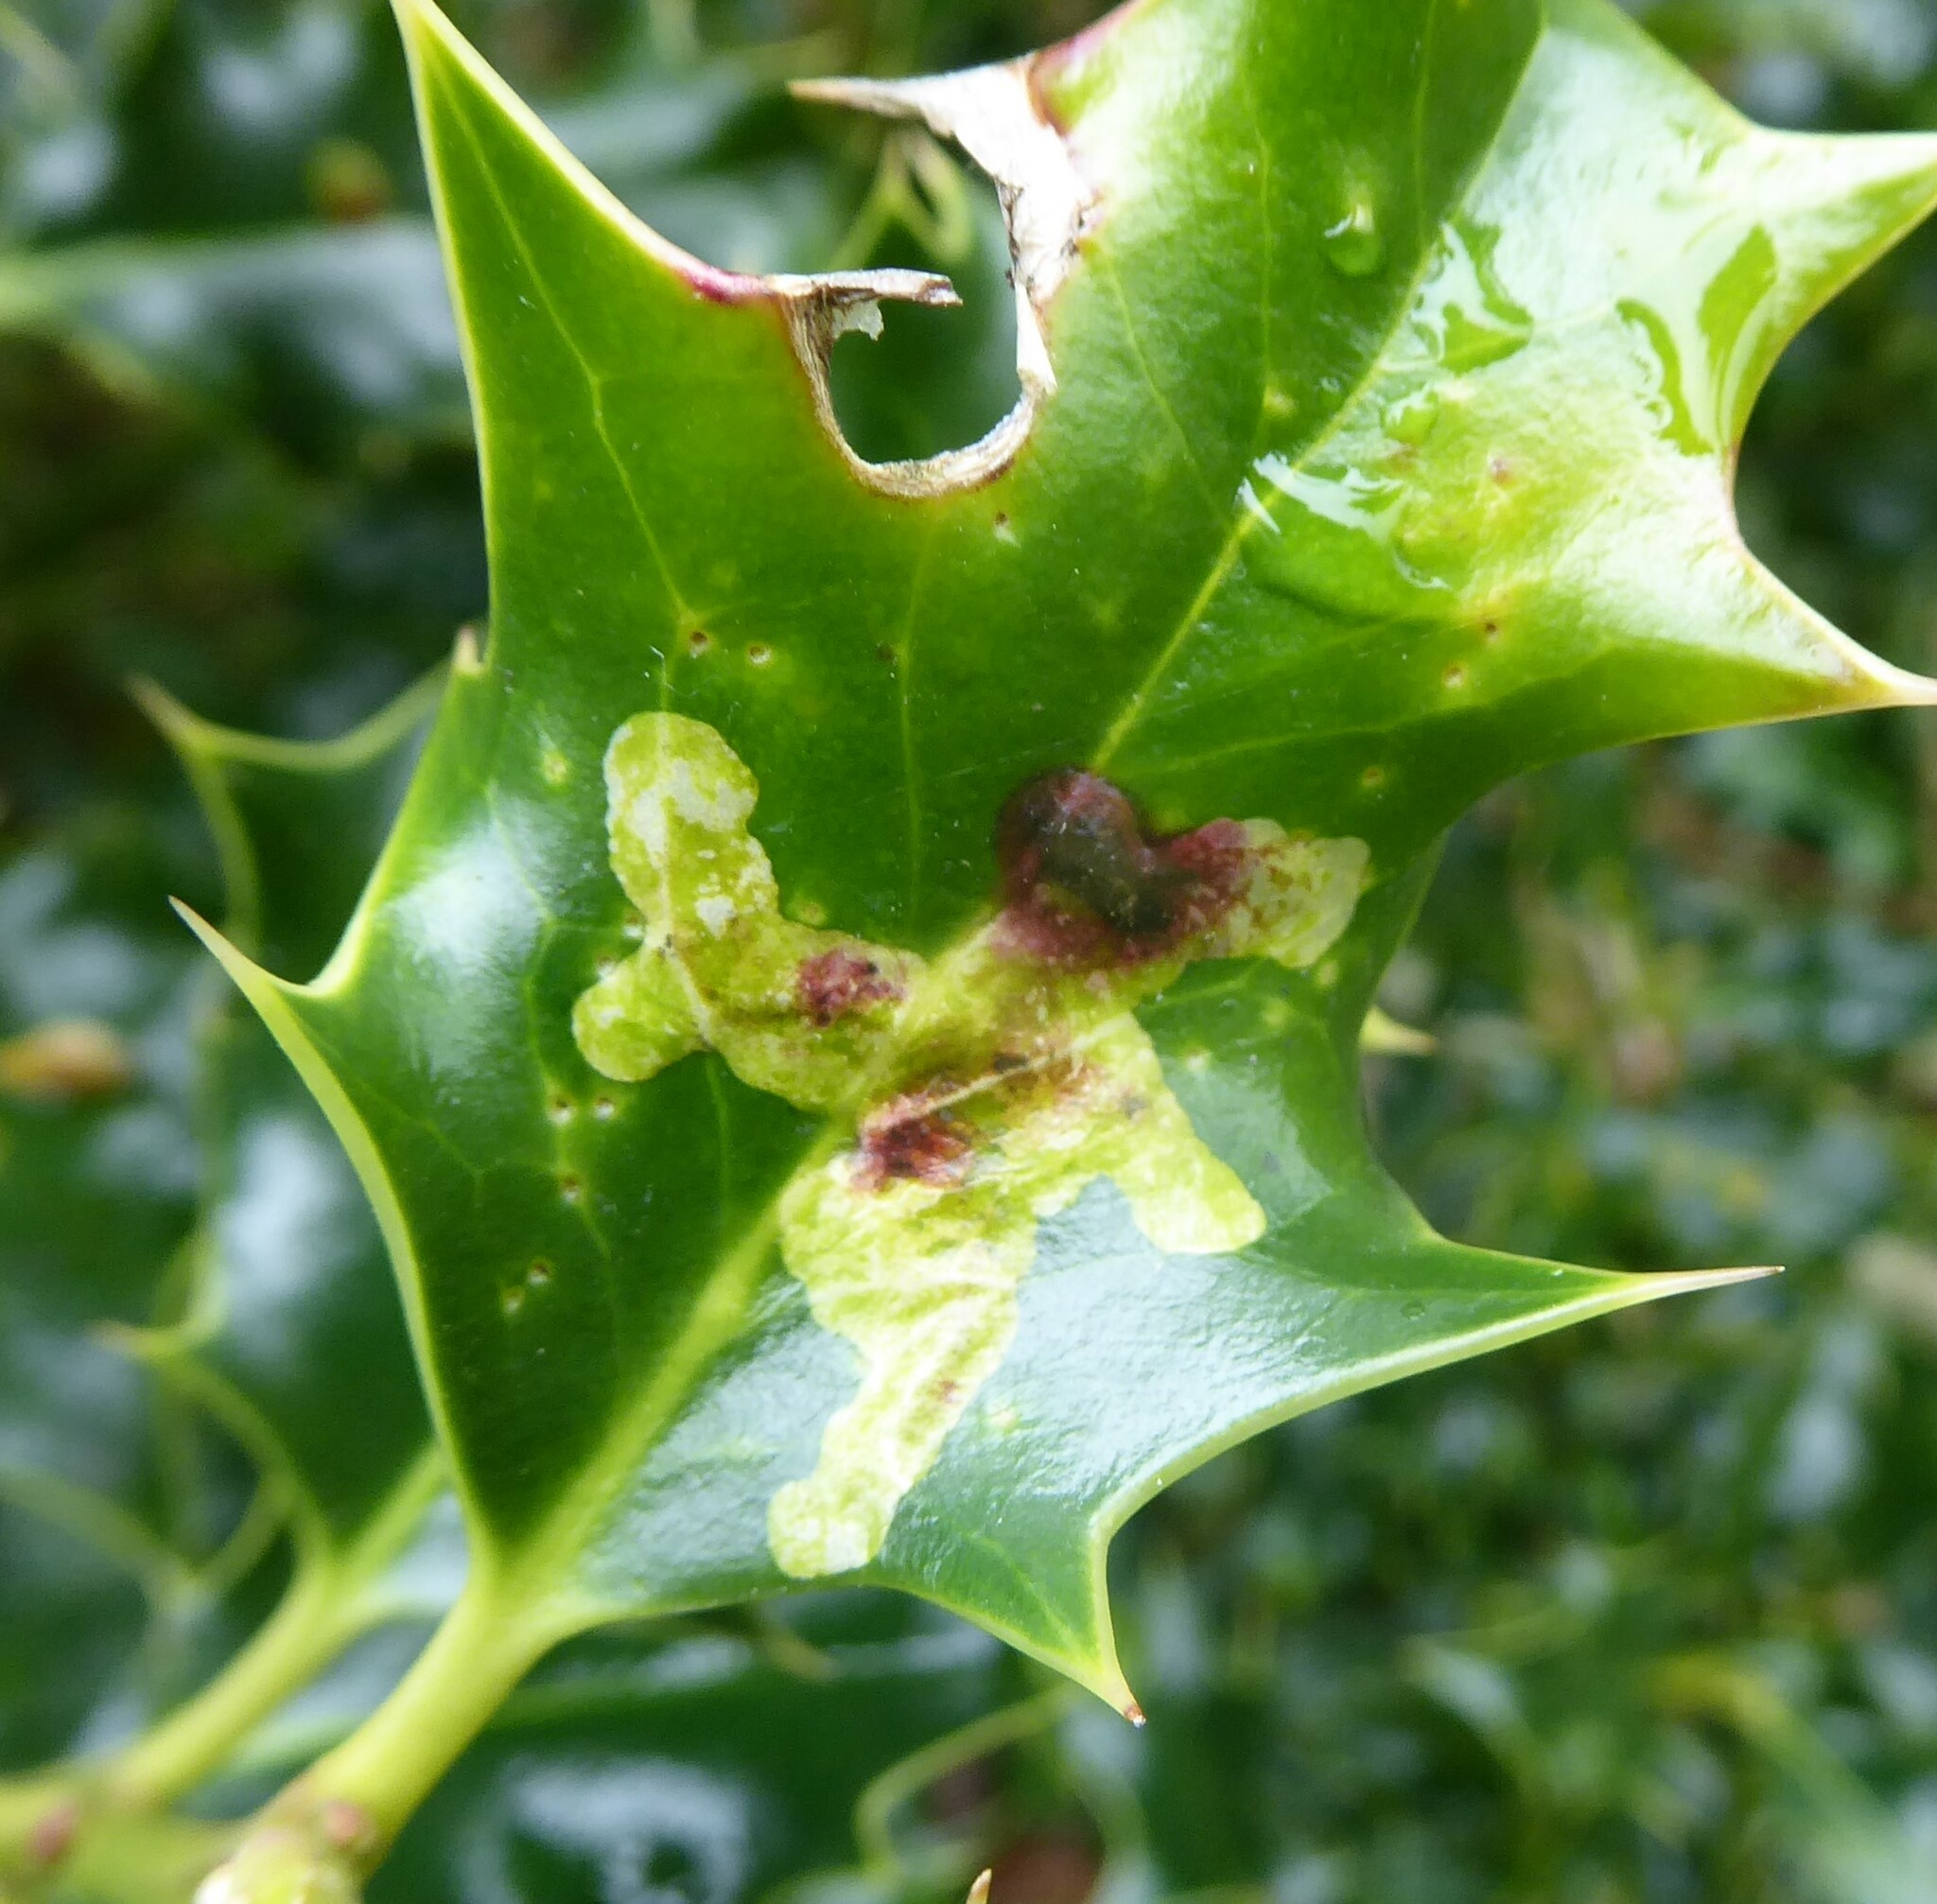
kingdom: Animalia
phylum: Arthropoda
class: Insecta
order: Diptera
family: Agromyzidae
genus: Phytomyza
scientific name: Phytomyza ilicis
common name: Holly leafminer
